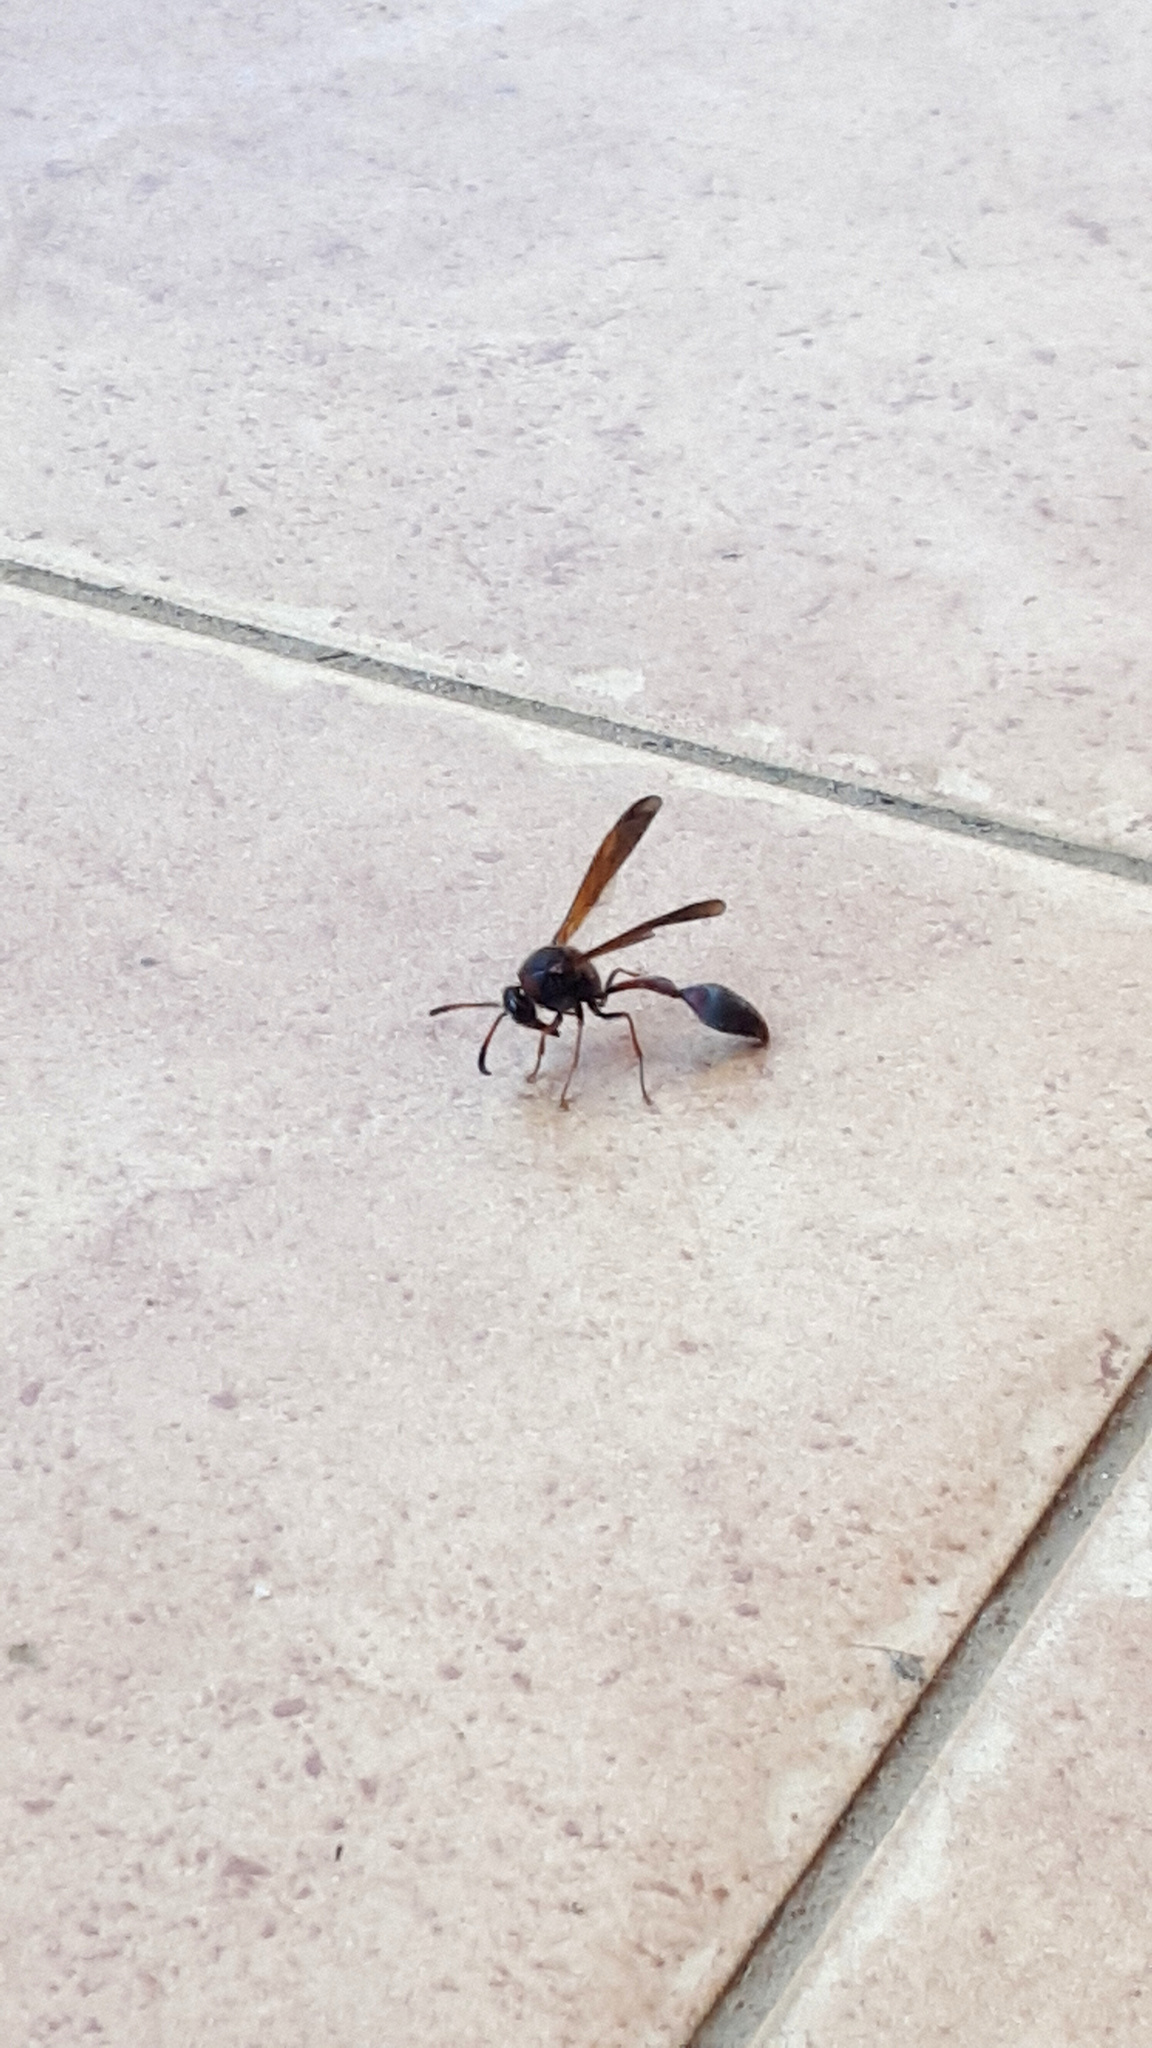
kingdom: Animalia
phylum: Arthropoda
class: Insecta
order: Hymenoptera
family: Eumenidae
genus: Delta
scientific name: Delta emarginatum
